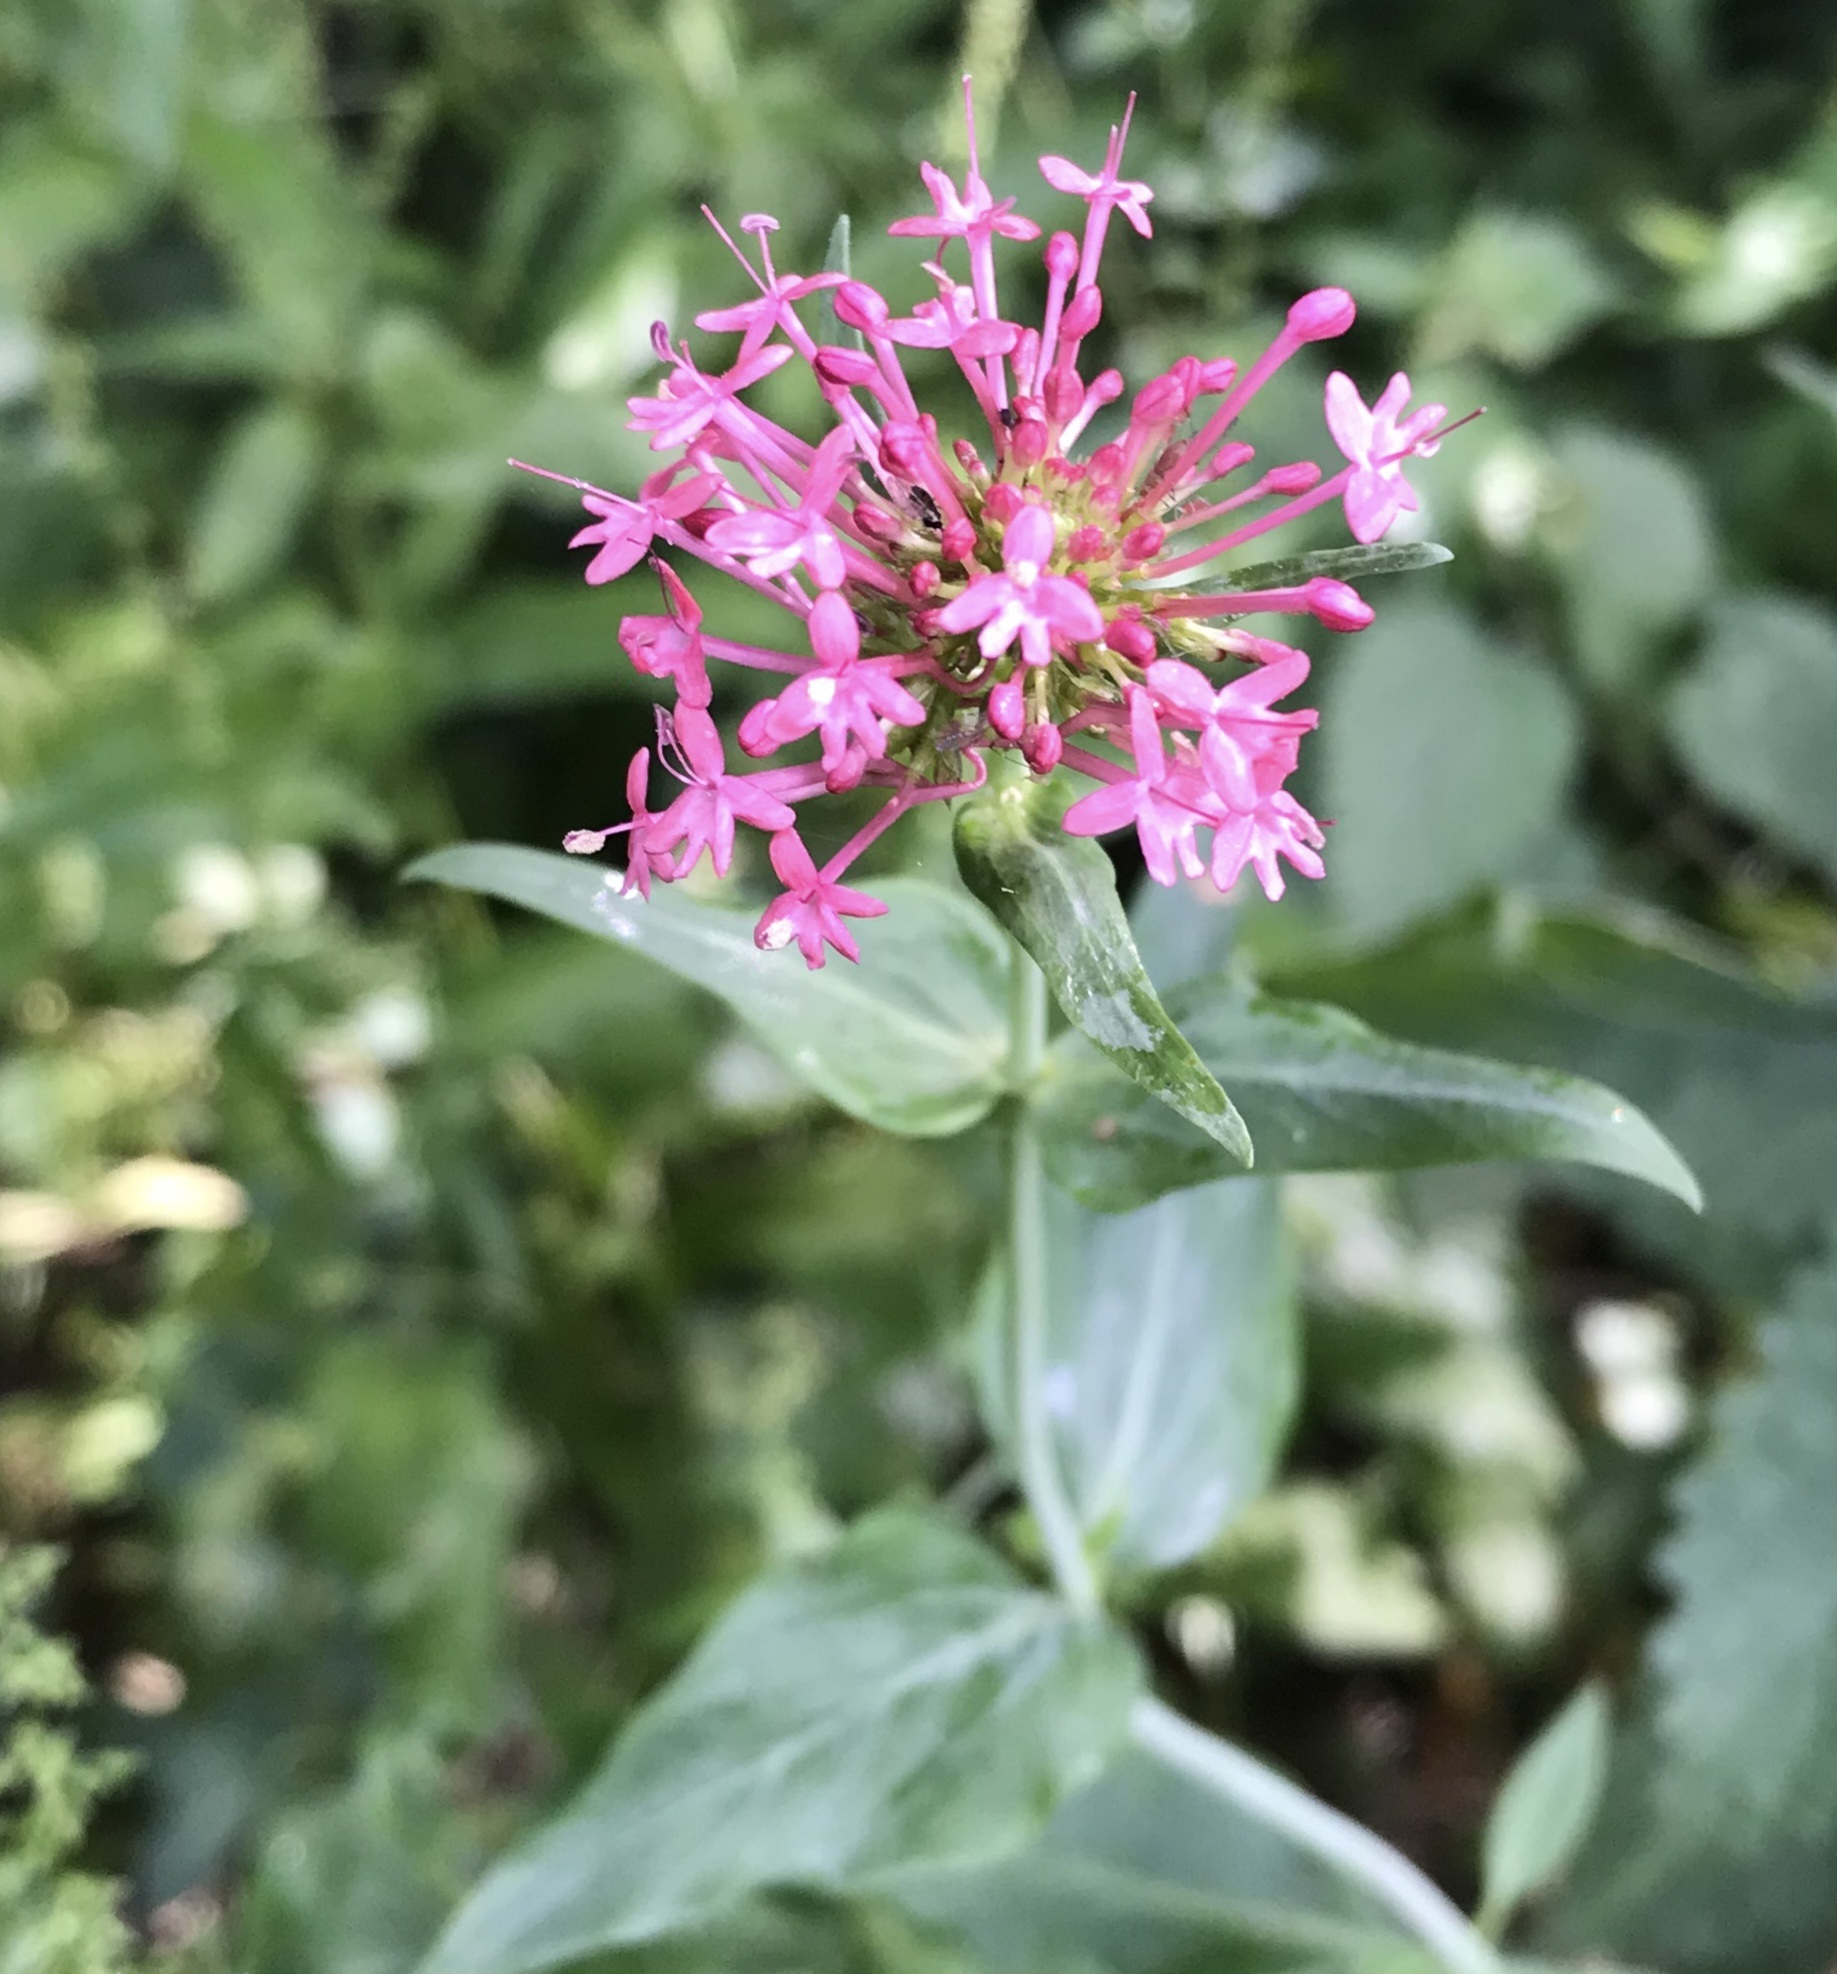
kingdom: Plantae
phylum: Tracheophyta
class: Magnoliopsida
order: Dipsacales
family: Caprifoliaceae
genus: Centranthus
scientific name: Centranthus ruber
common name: Red valerian
